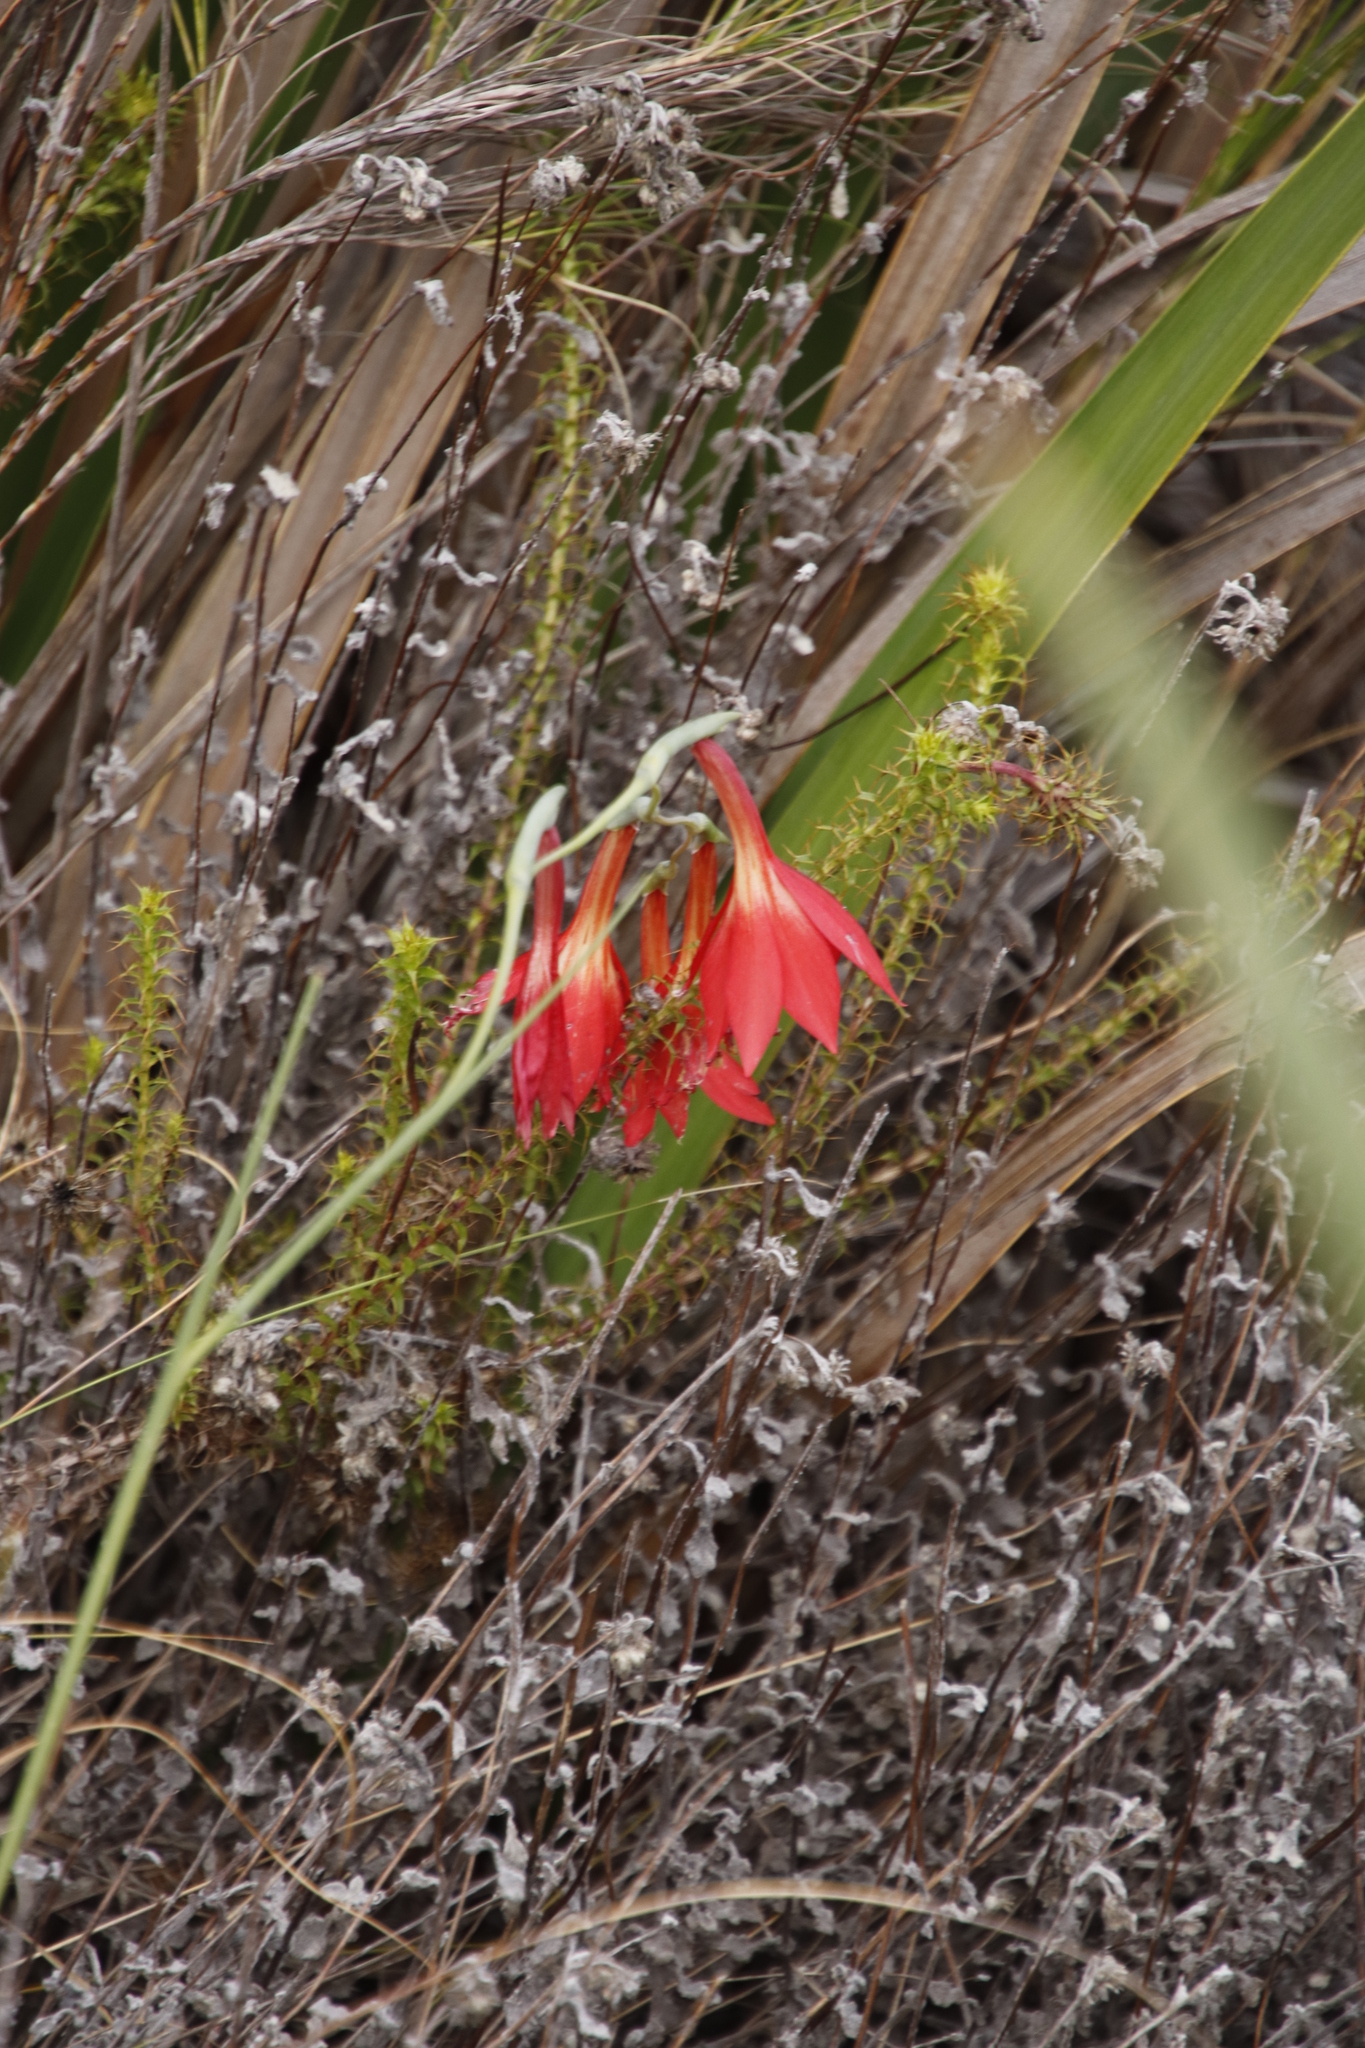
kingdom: Plantae
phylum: Tracheophyta
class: Liliopsida
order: Asparagales
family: Iridaceae
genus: Gladiolus
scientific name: Gladiolus priorii
